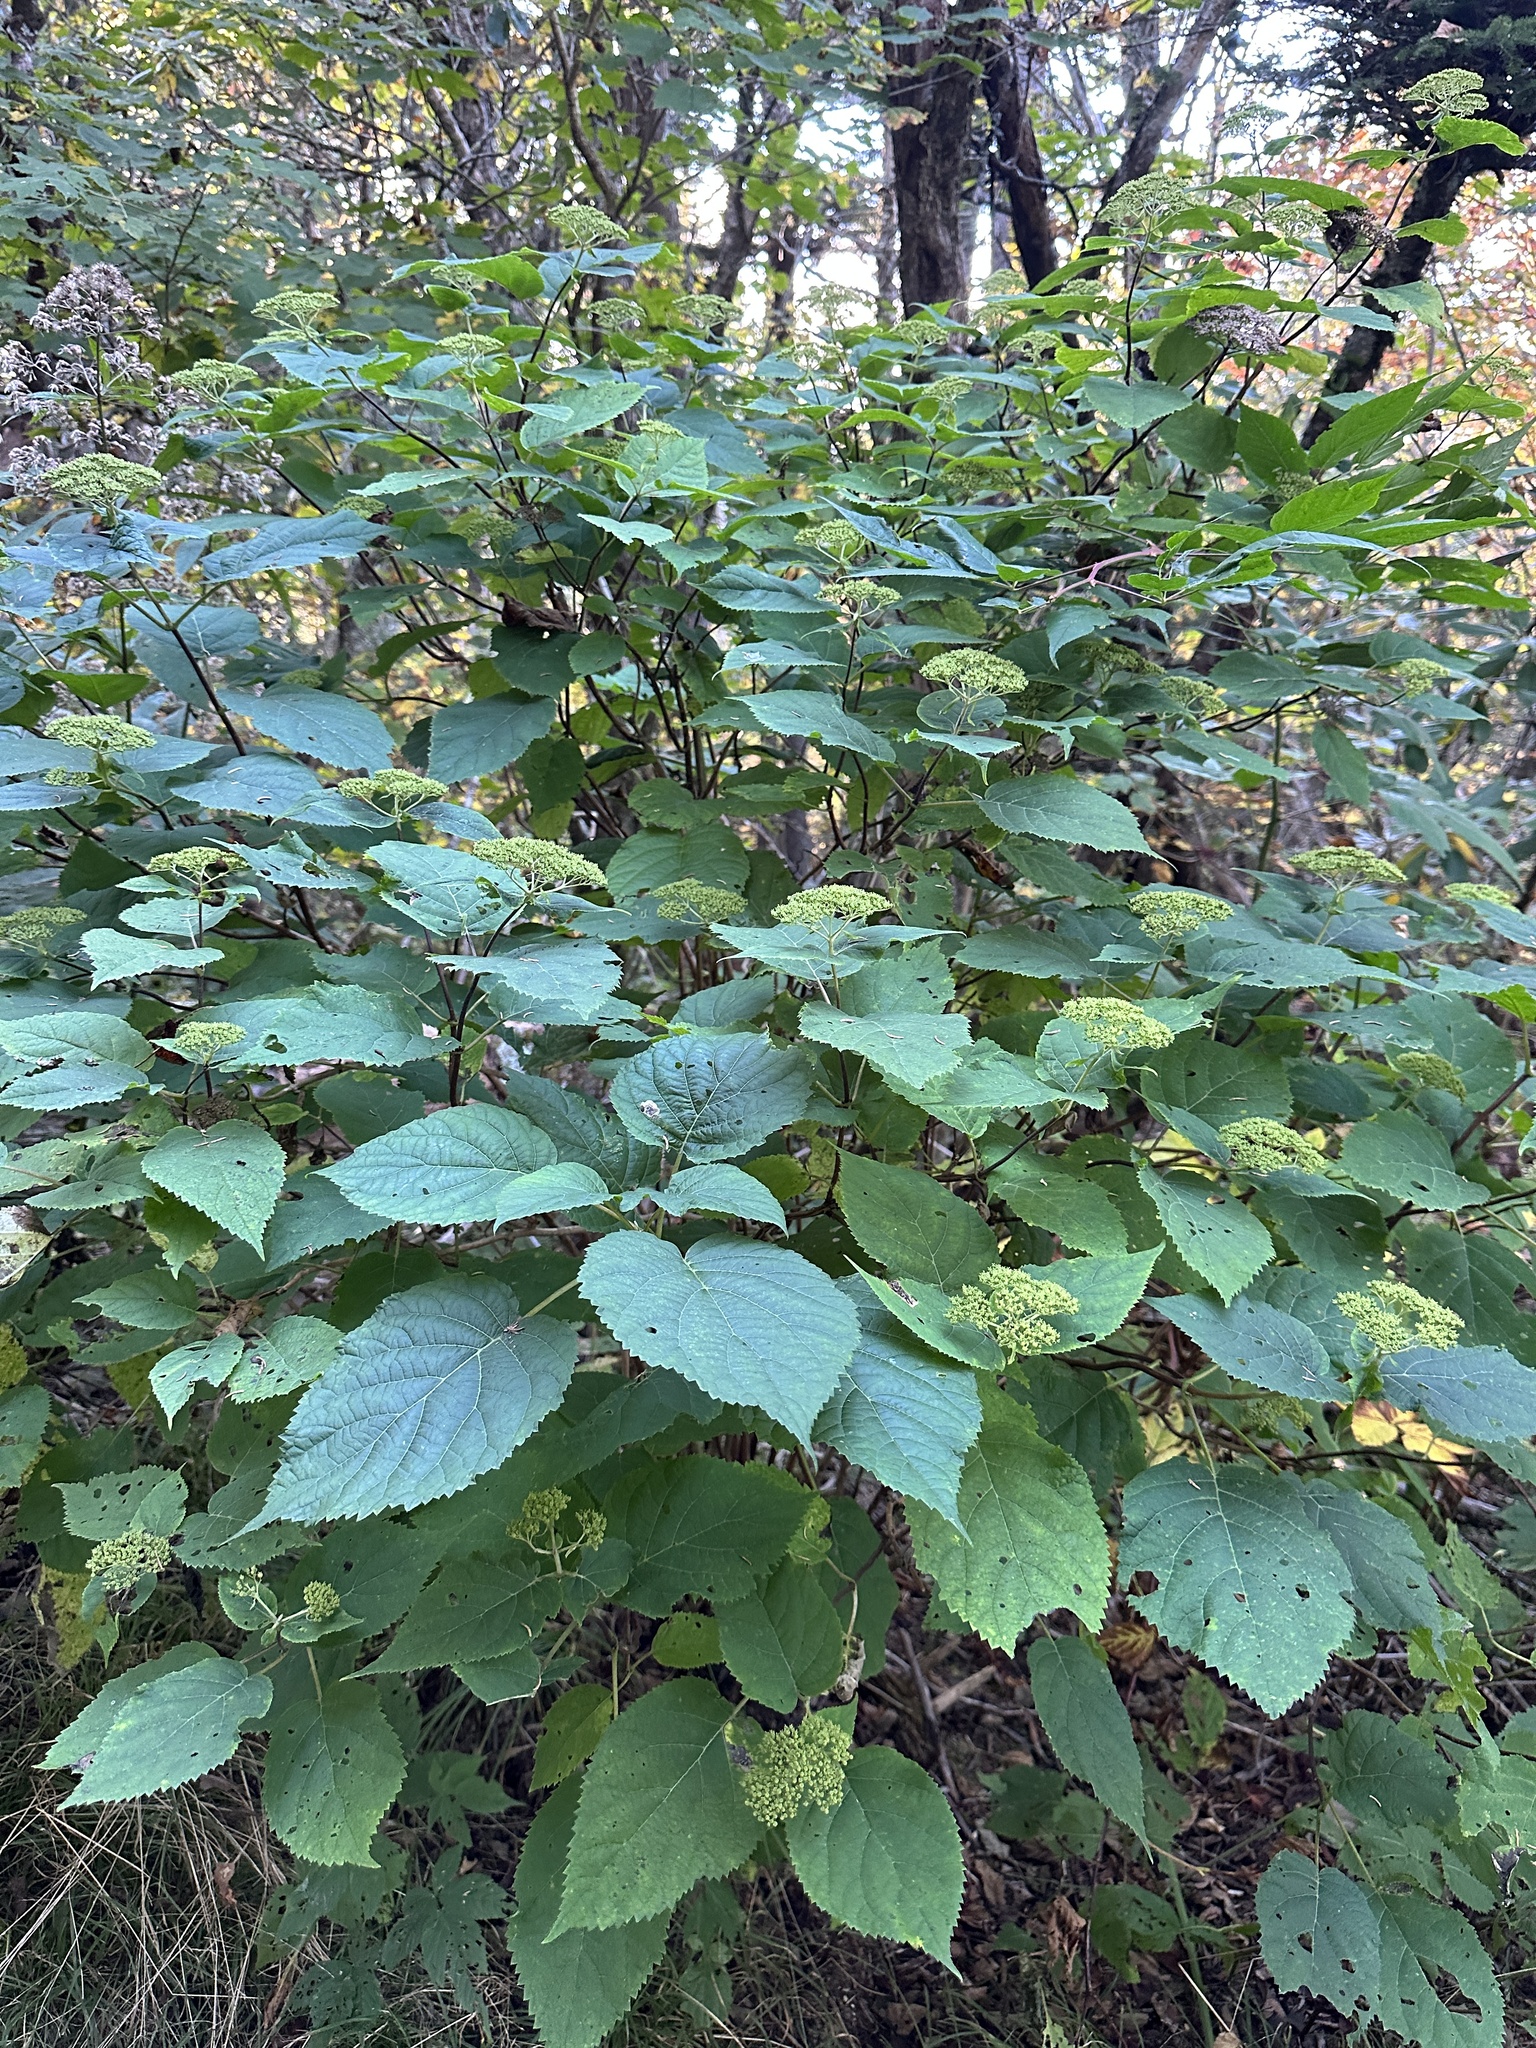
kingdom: Plantae
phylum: Tracheophyta
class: Magnoliopsida
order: Cornales
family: Hydrangeaceae
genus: Hydrangea
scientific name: Hydrangea arborescens
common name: Sevenbark
